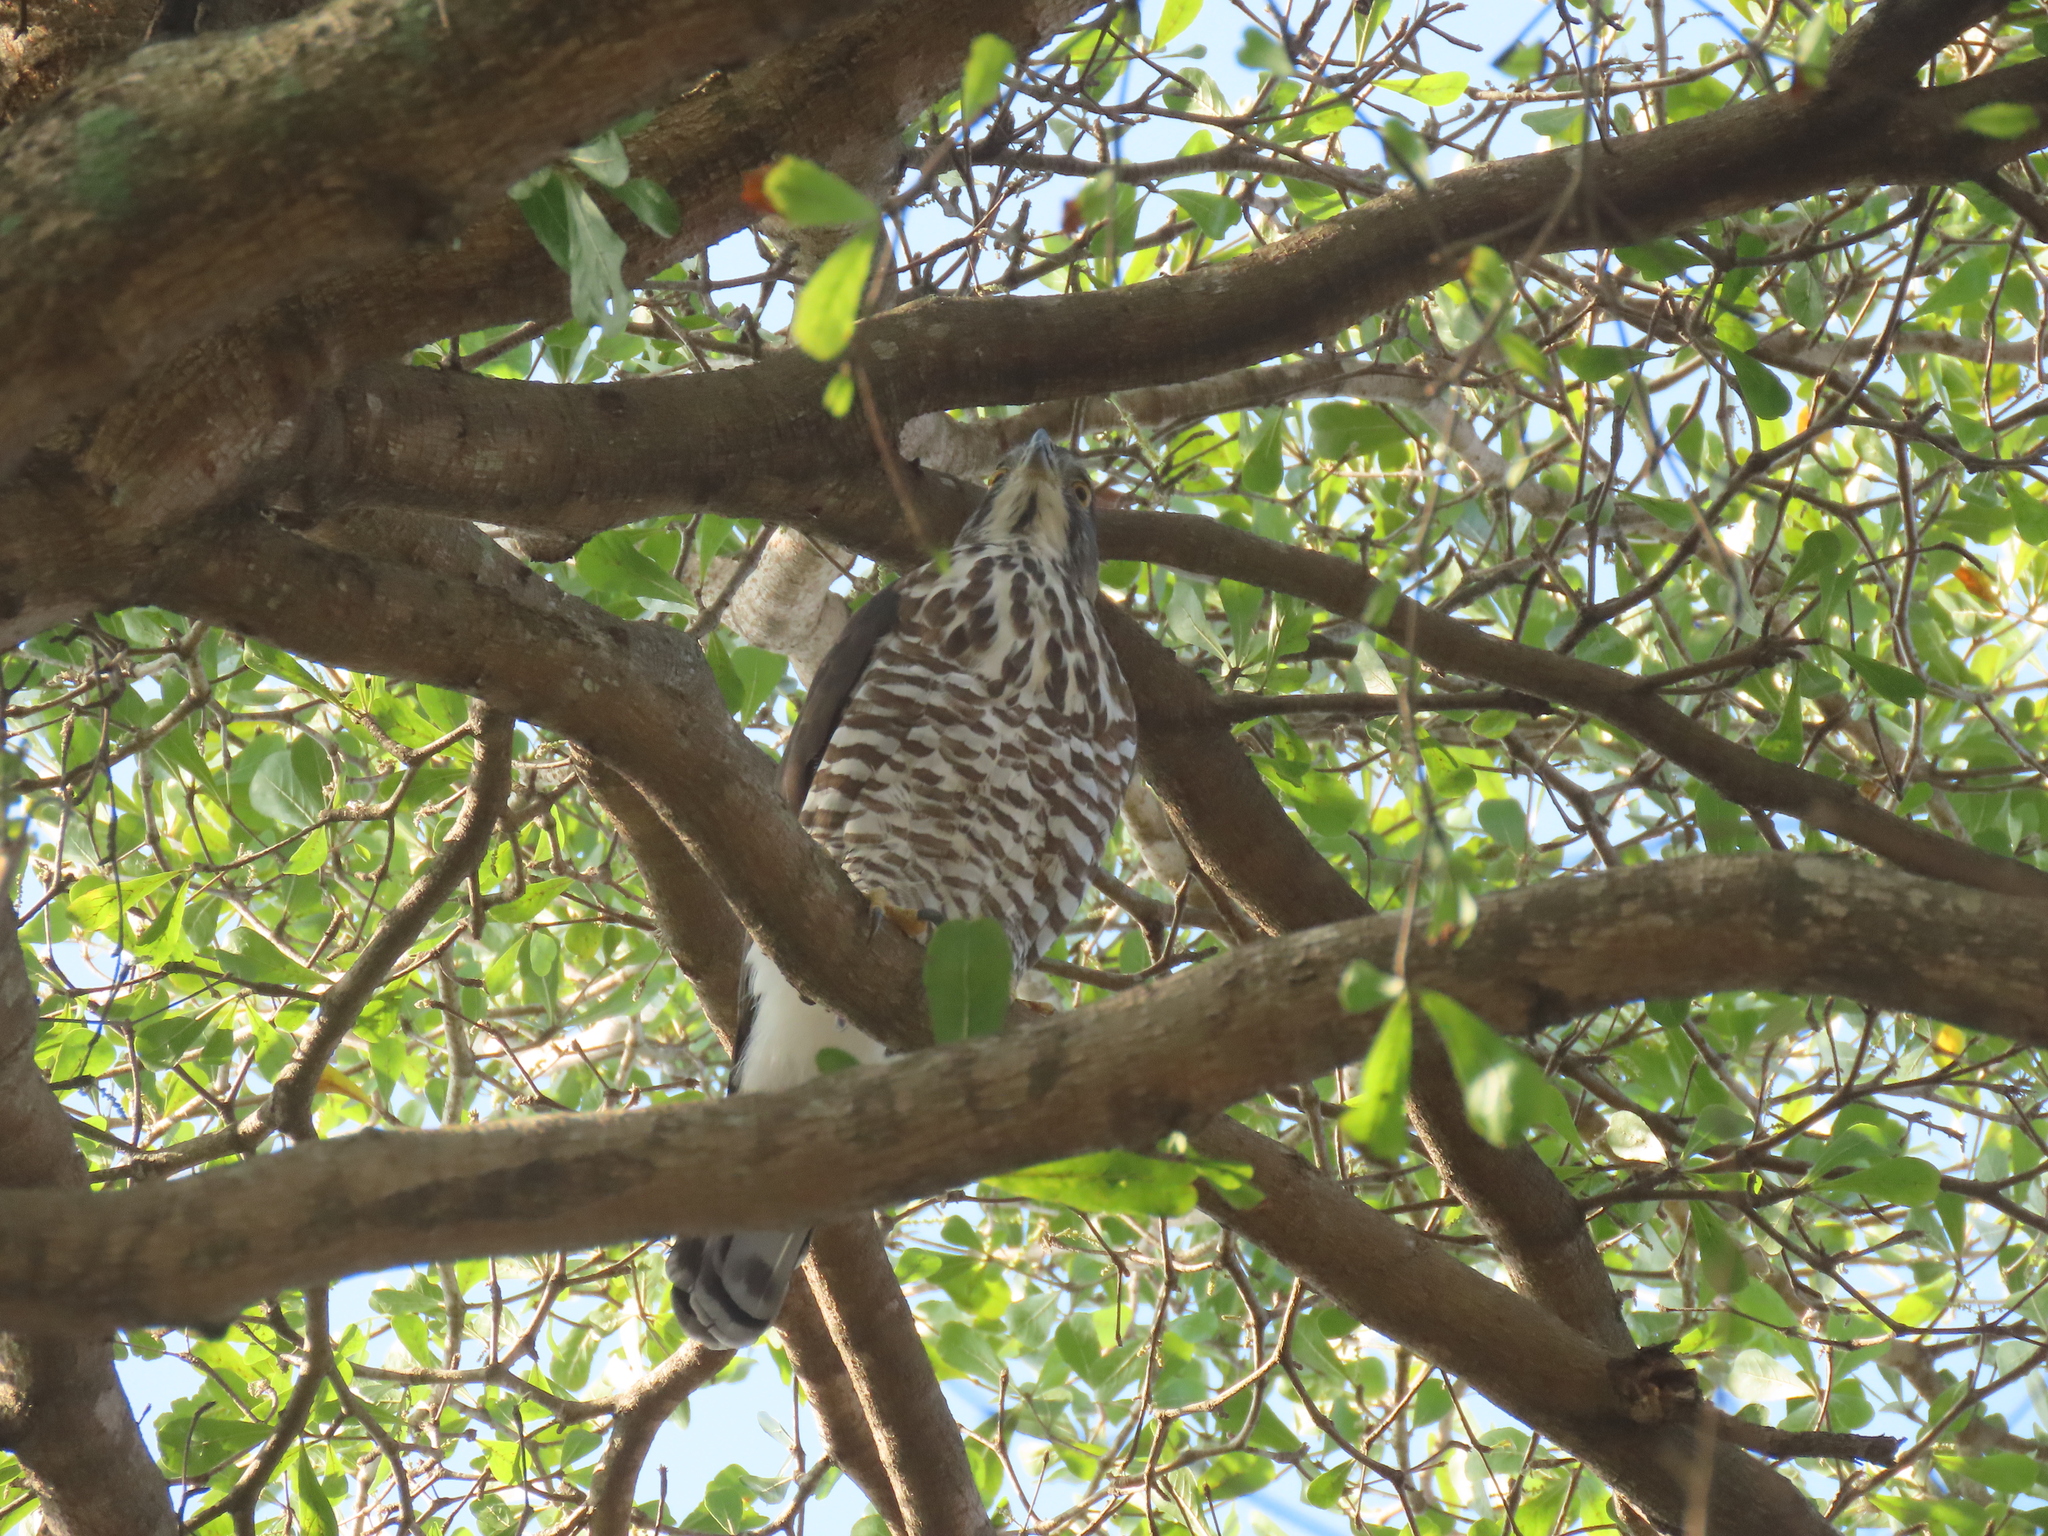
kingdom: Animalia
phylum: Chordata
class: Aves
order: Accipitriformes
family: Accipitridae
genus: Accipiter
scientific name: Accipiter trivirgatus
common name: Crested goshawk
